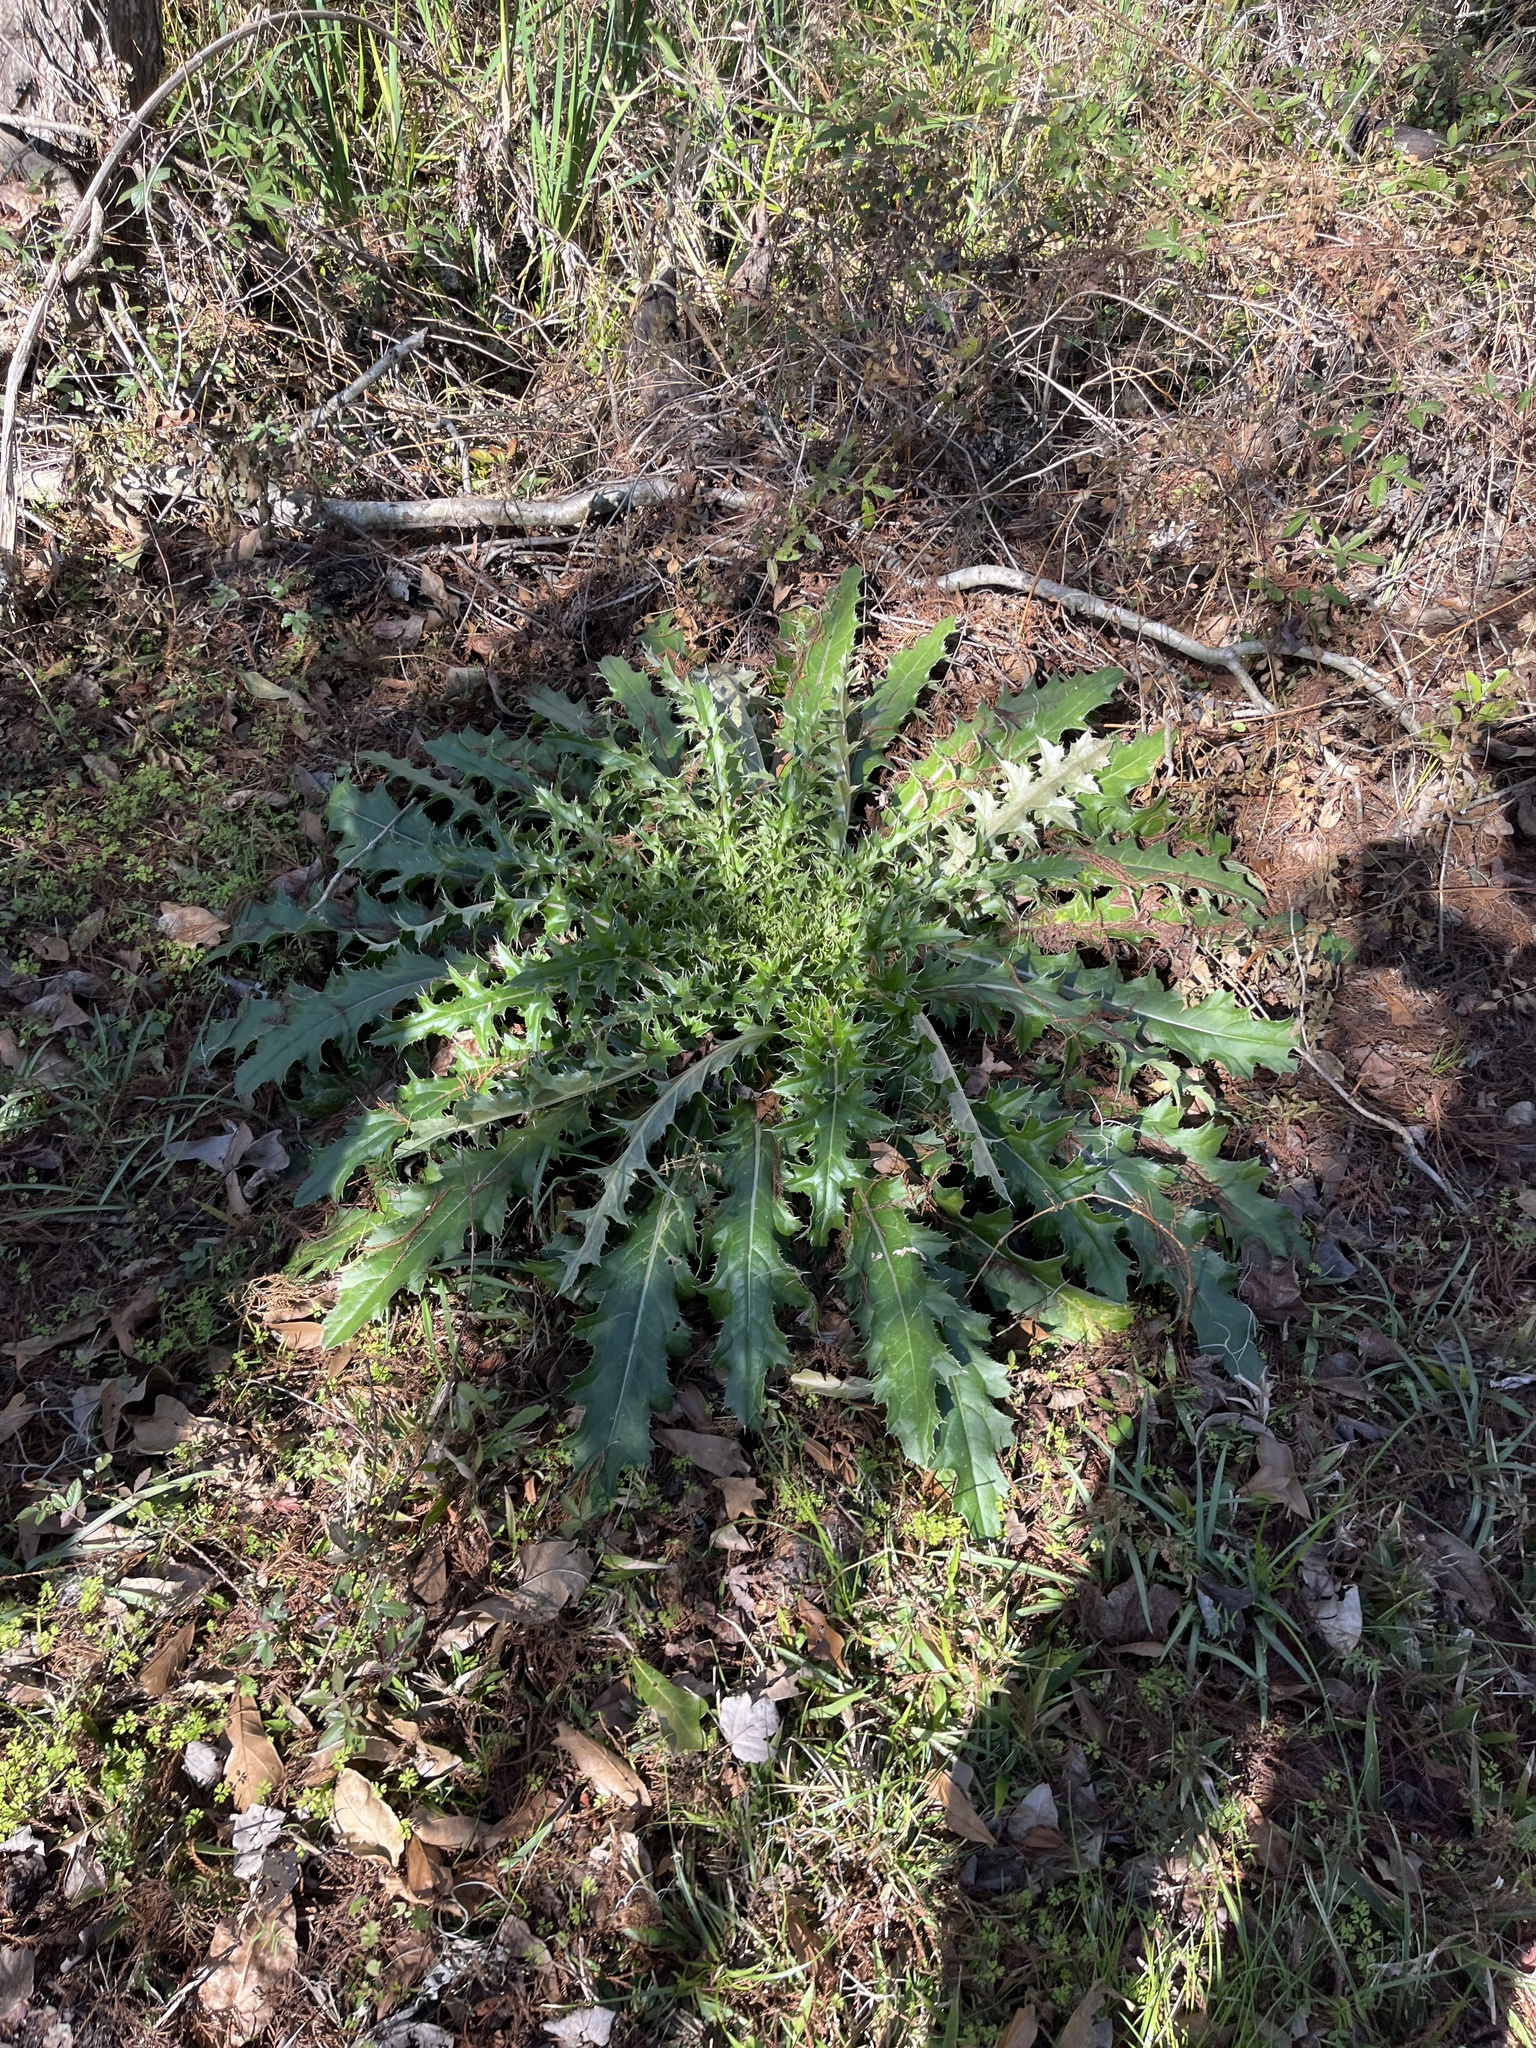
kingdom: Plantae
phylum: Tracheophyta
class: Magnoliopsida
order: Asterales
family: Asteraceae
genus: Cirsium
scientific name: Cirsium horridulum
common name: Bristly thistle
